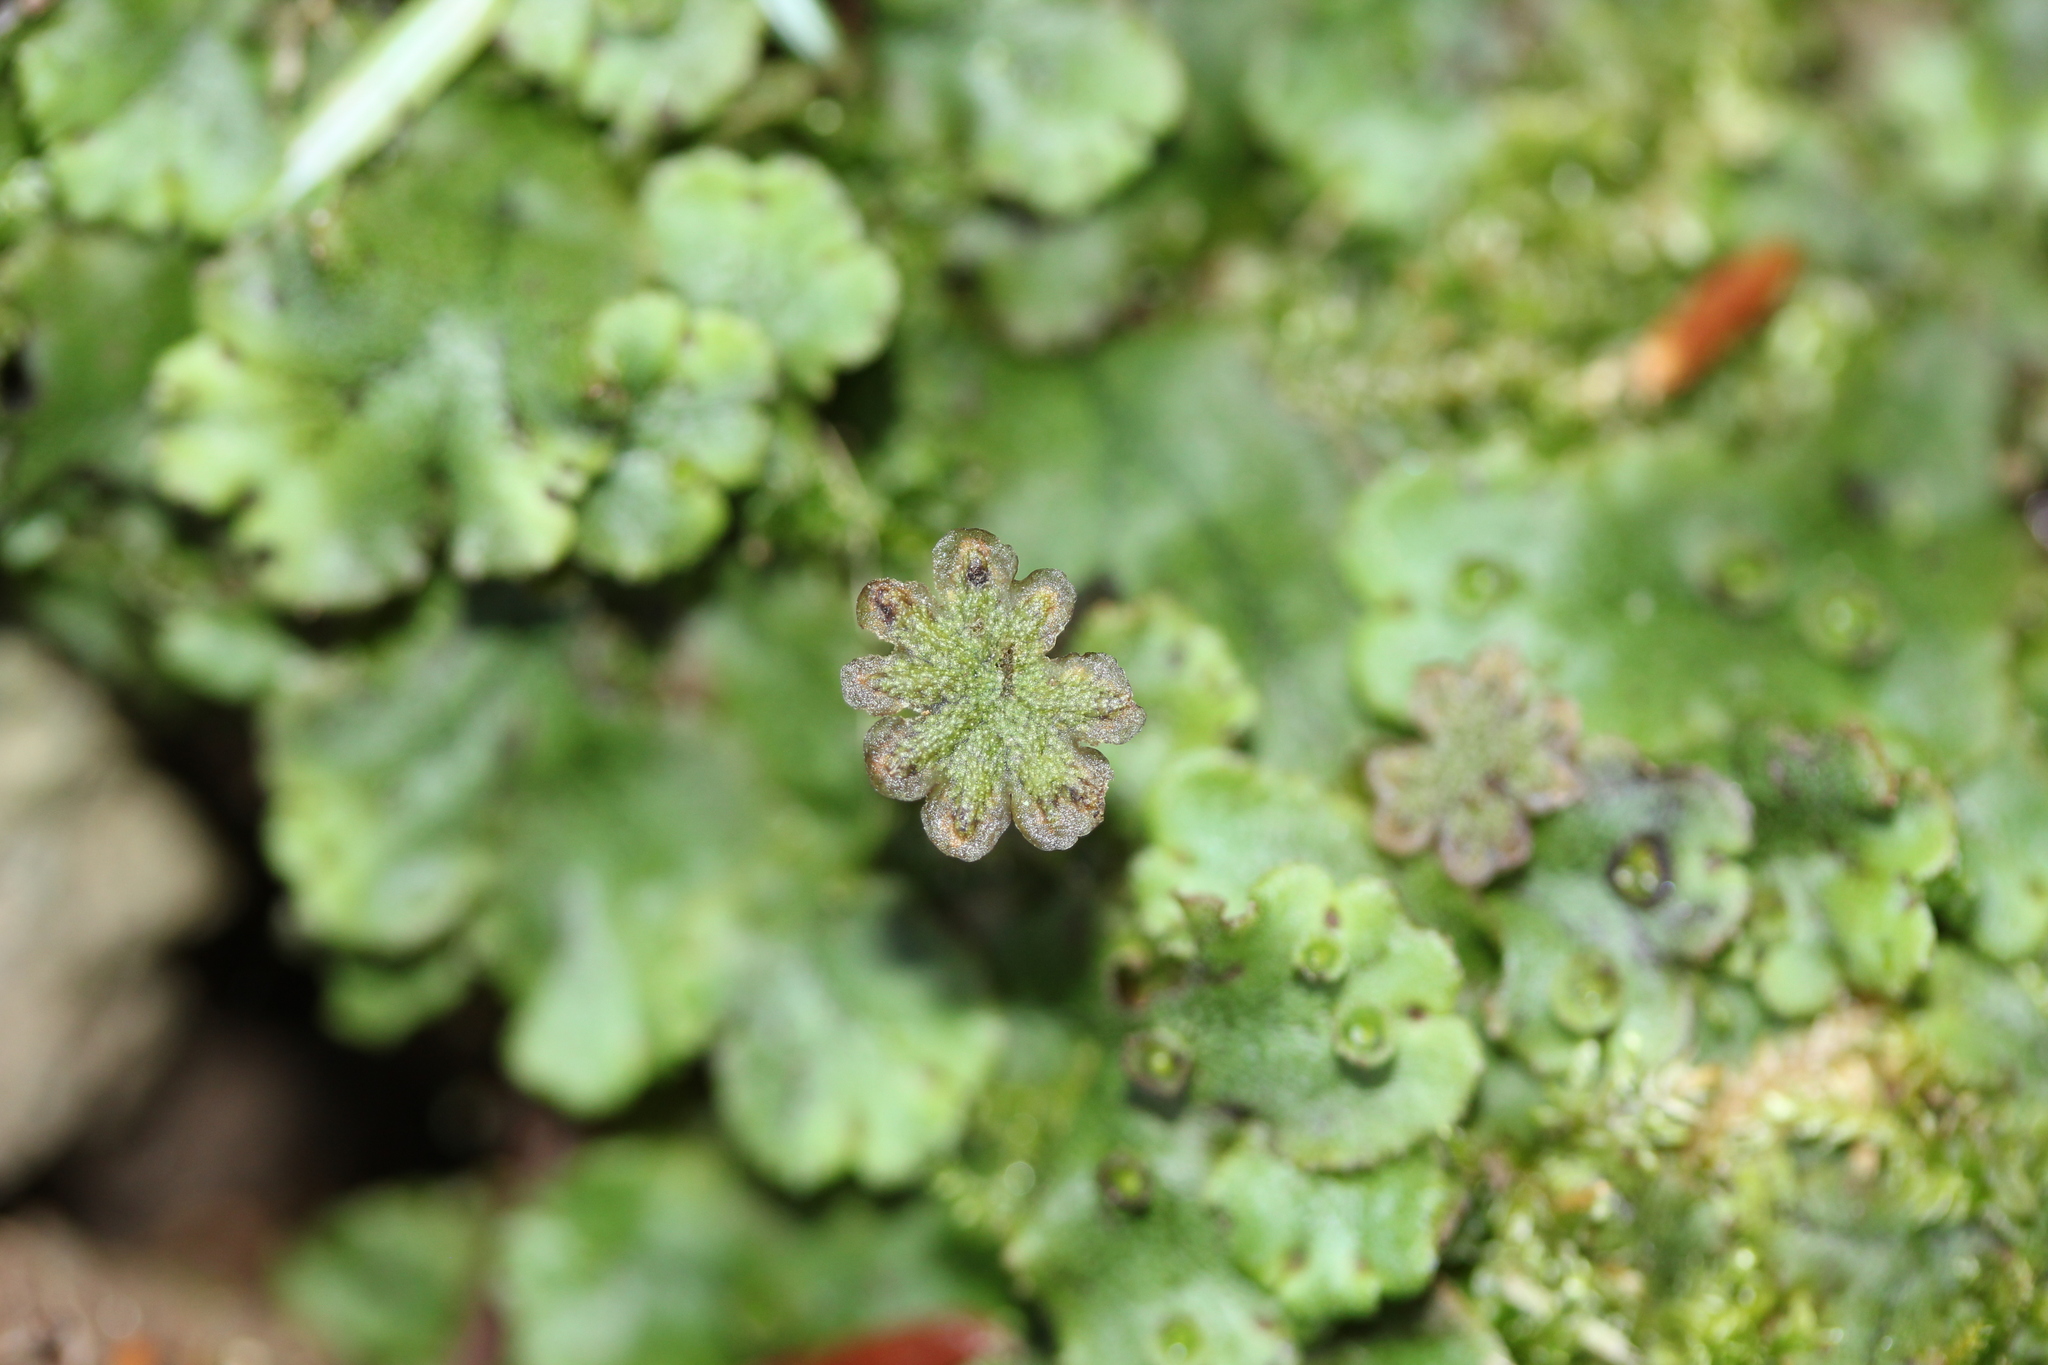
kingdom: Plantae
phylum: Marchantiophyta
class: Marchantiopsida
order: Marchantiales
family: Marchantiaceae
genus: Marchantia
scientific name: Marchantia polymorpha
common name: Common liverwort
